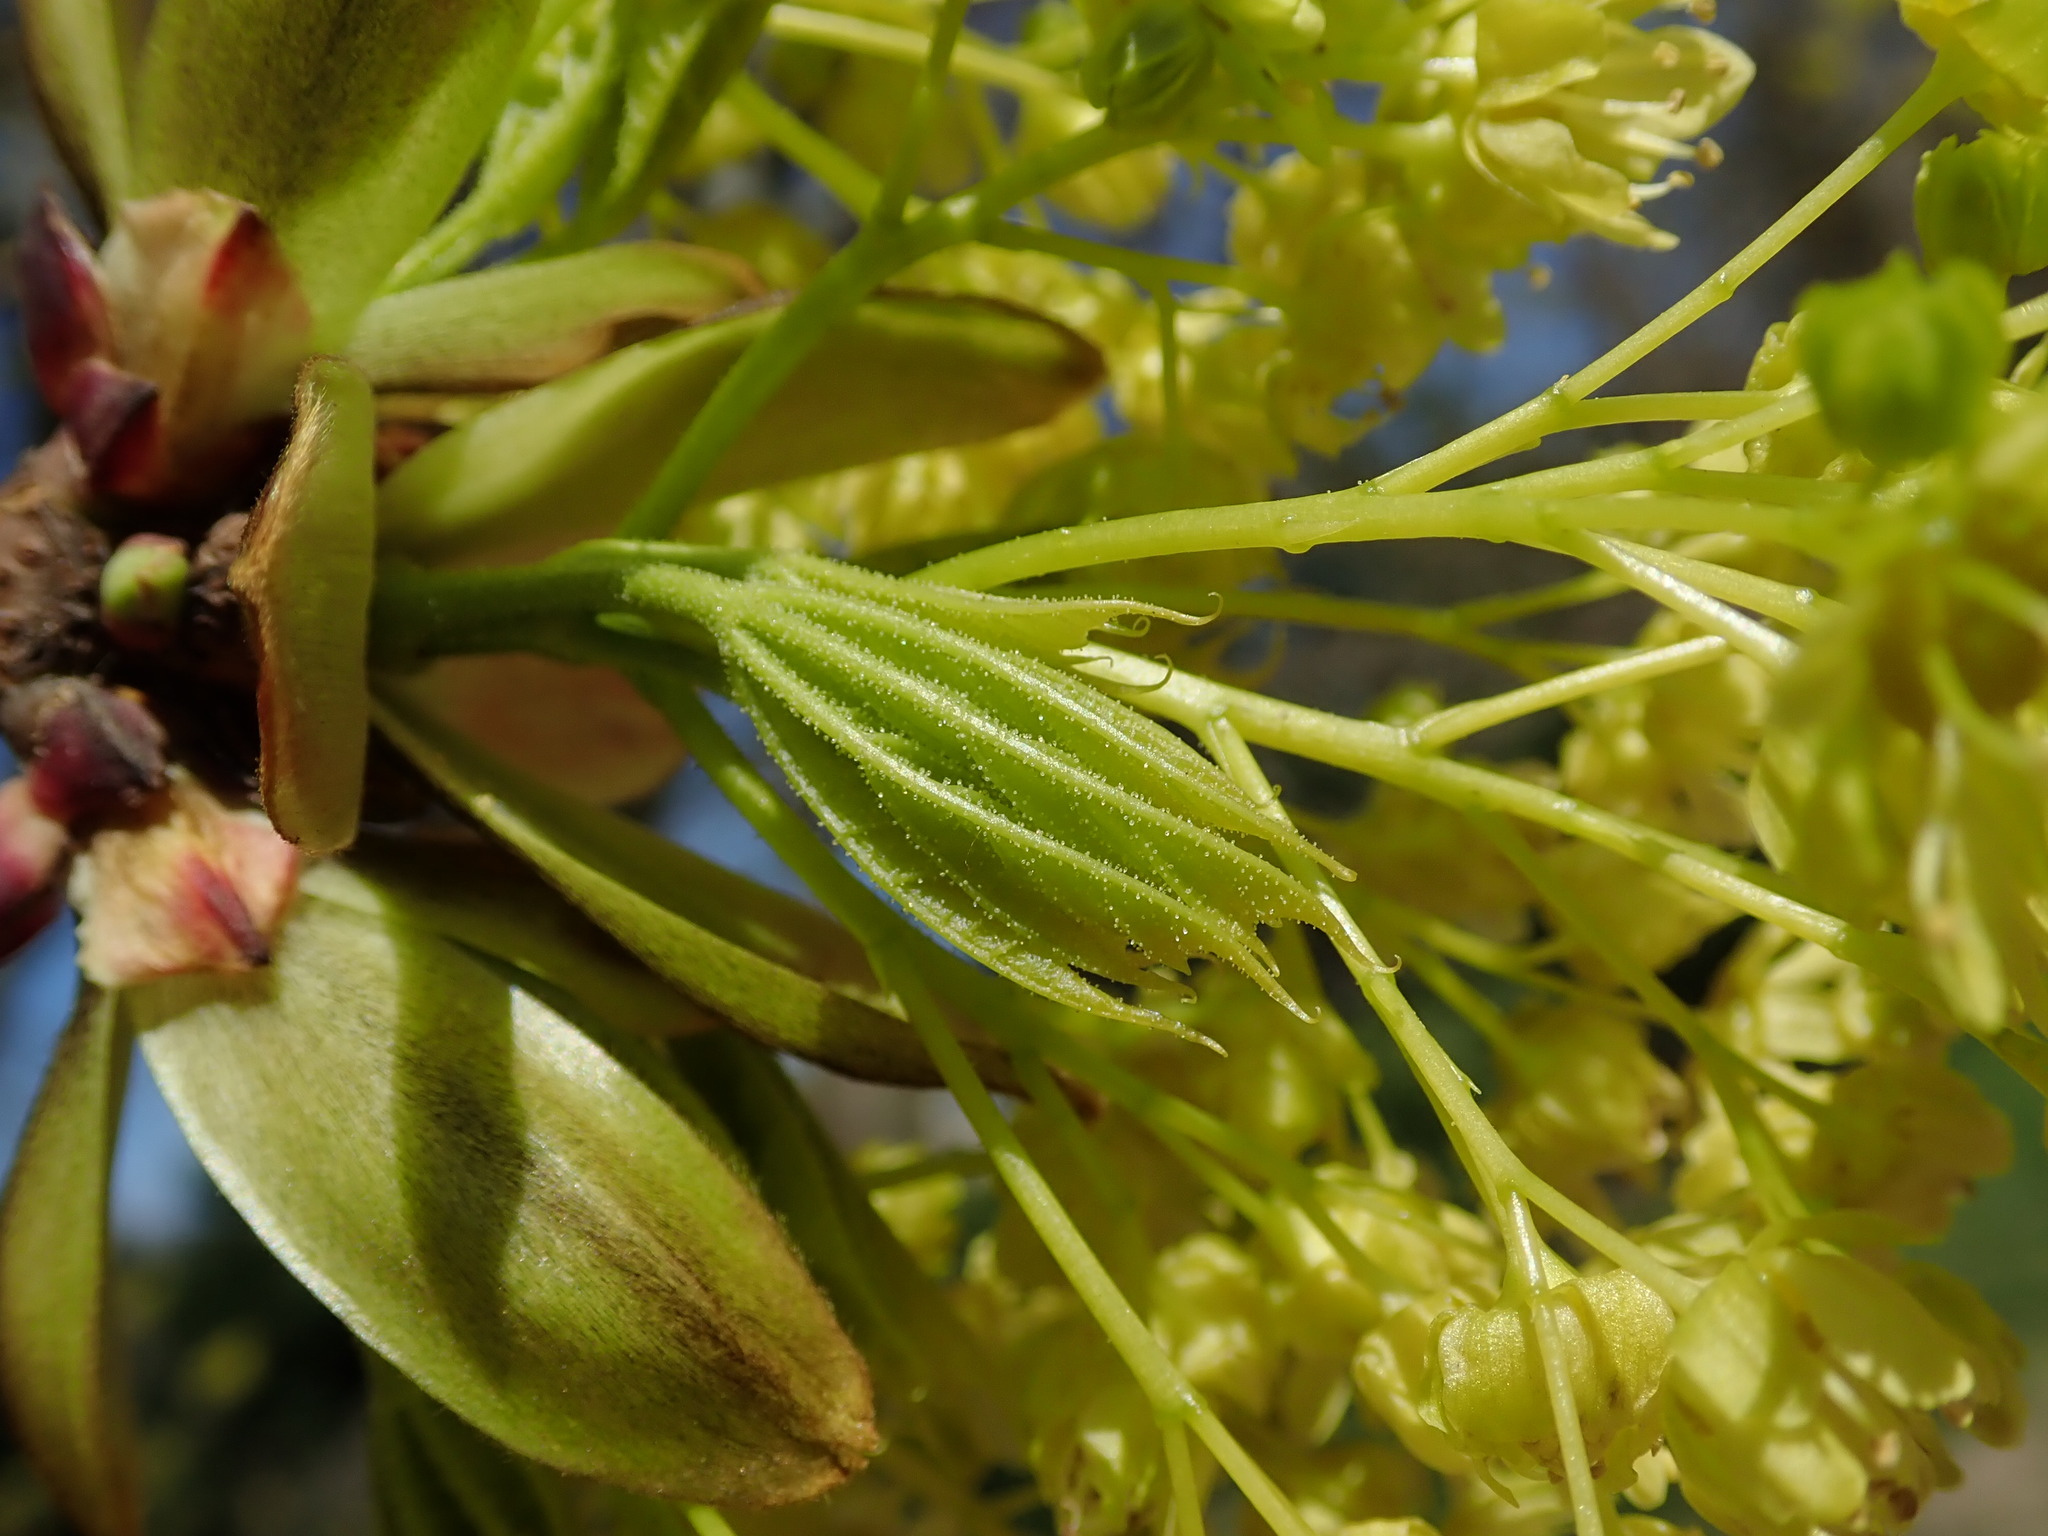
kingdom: Plantae
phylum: Tracheophyta
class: Magnoliopsida
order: Sapindales
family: Sapindaceae
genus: Acer
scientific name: Acer platanoides
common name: Norway maple
